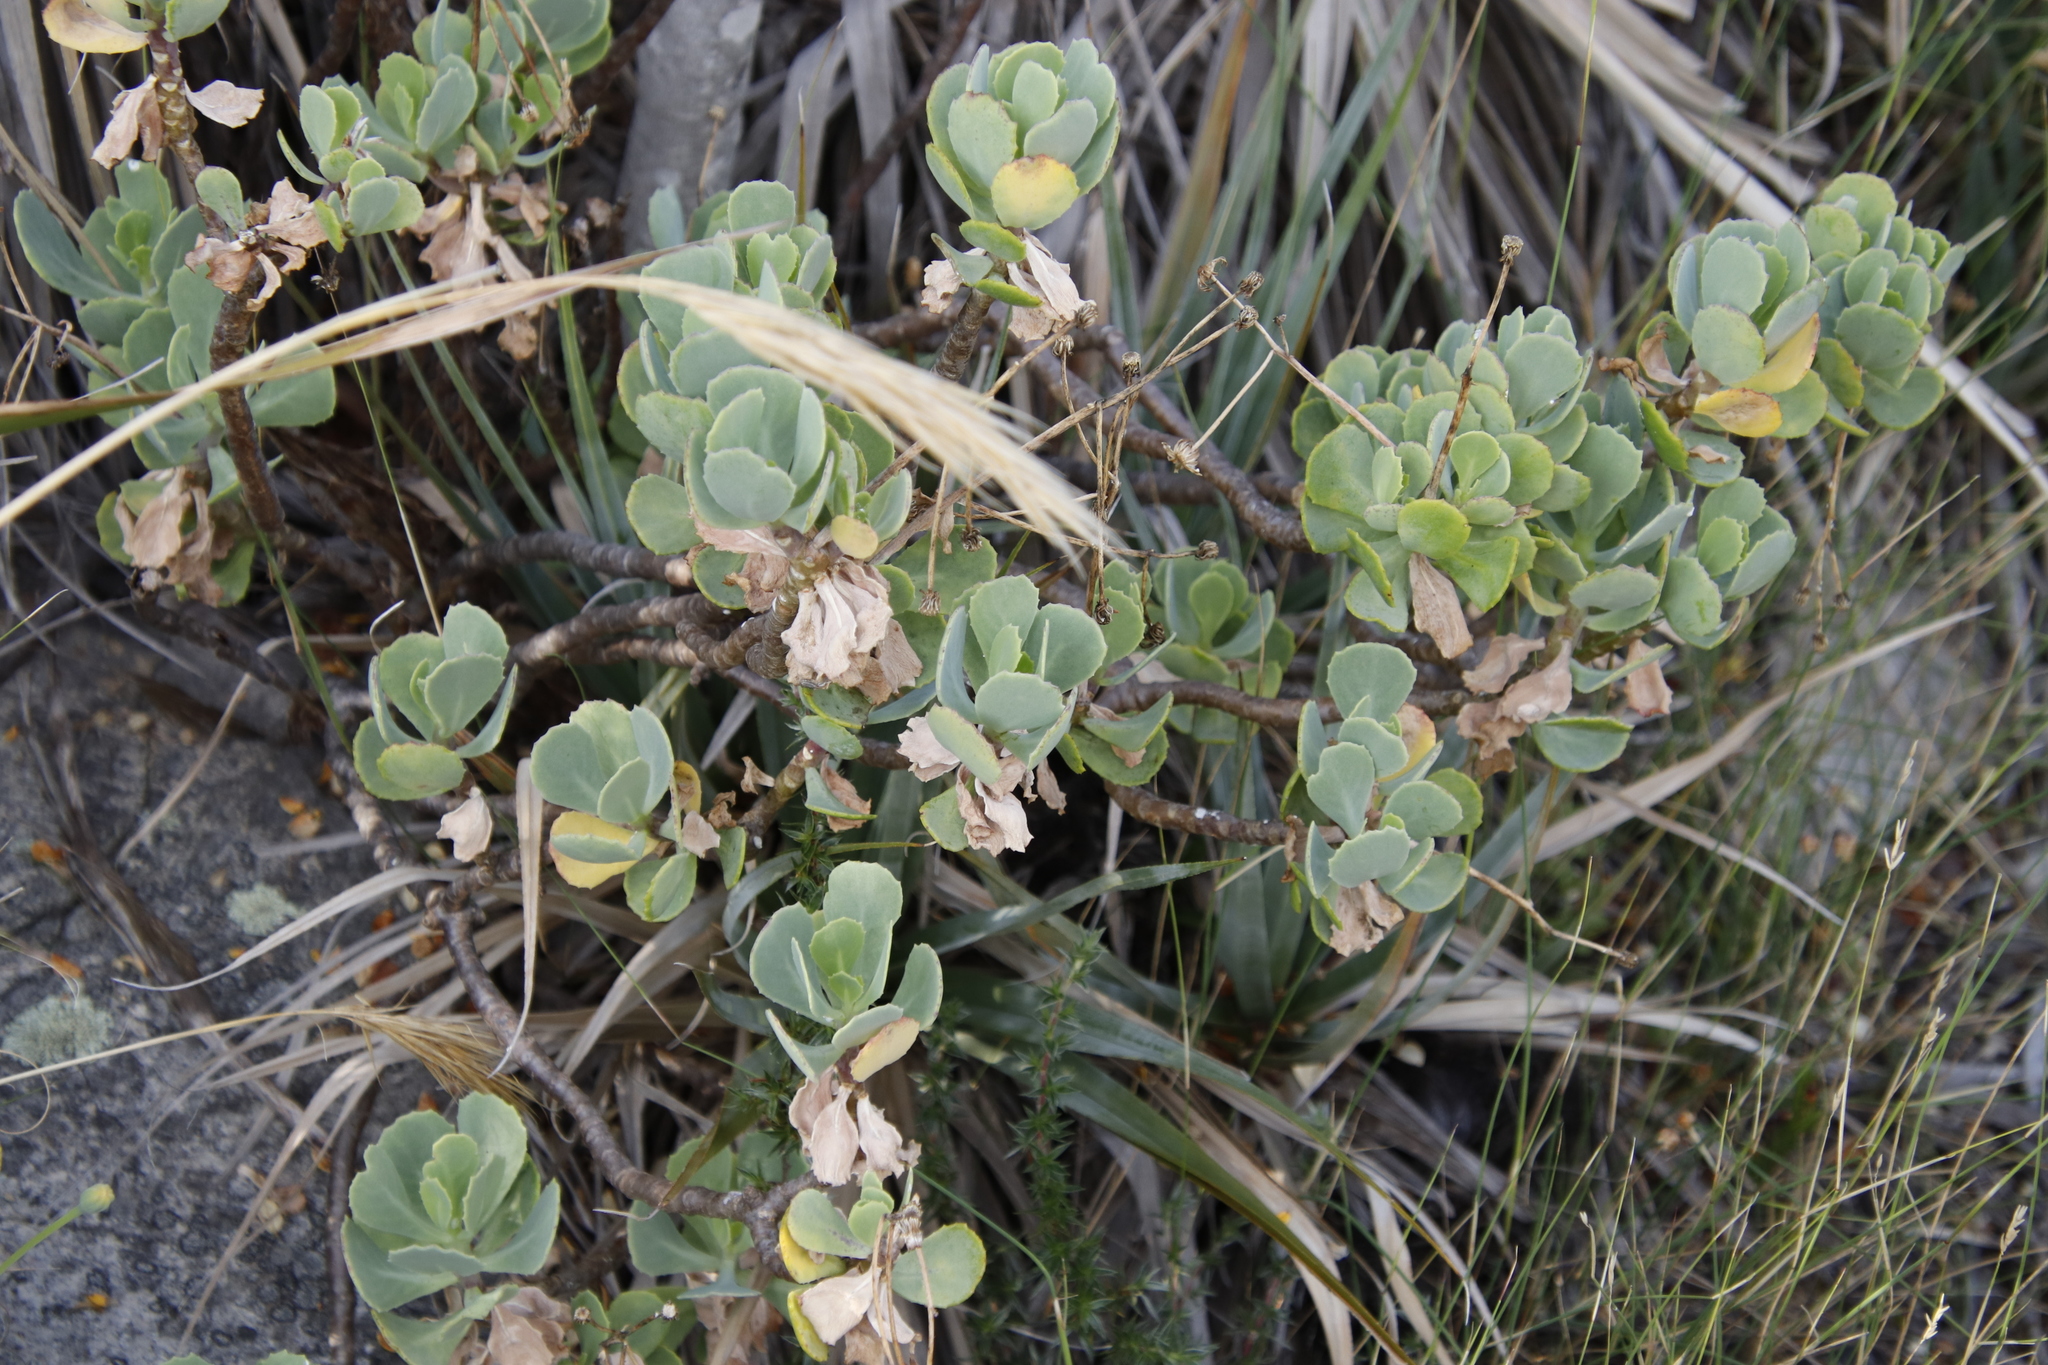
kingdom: Plantae
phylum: Tracheophyta
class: Magnoliopsida
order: Asterales
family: Asteraceae
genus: Othonna
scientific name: Othonna dentata
